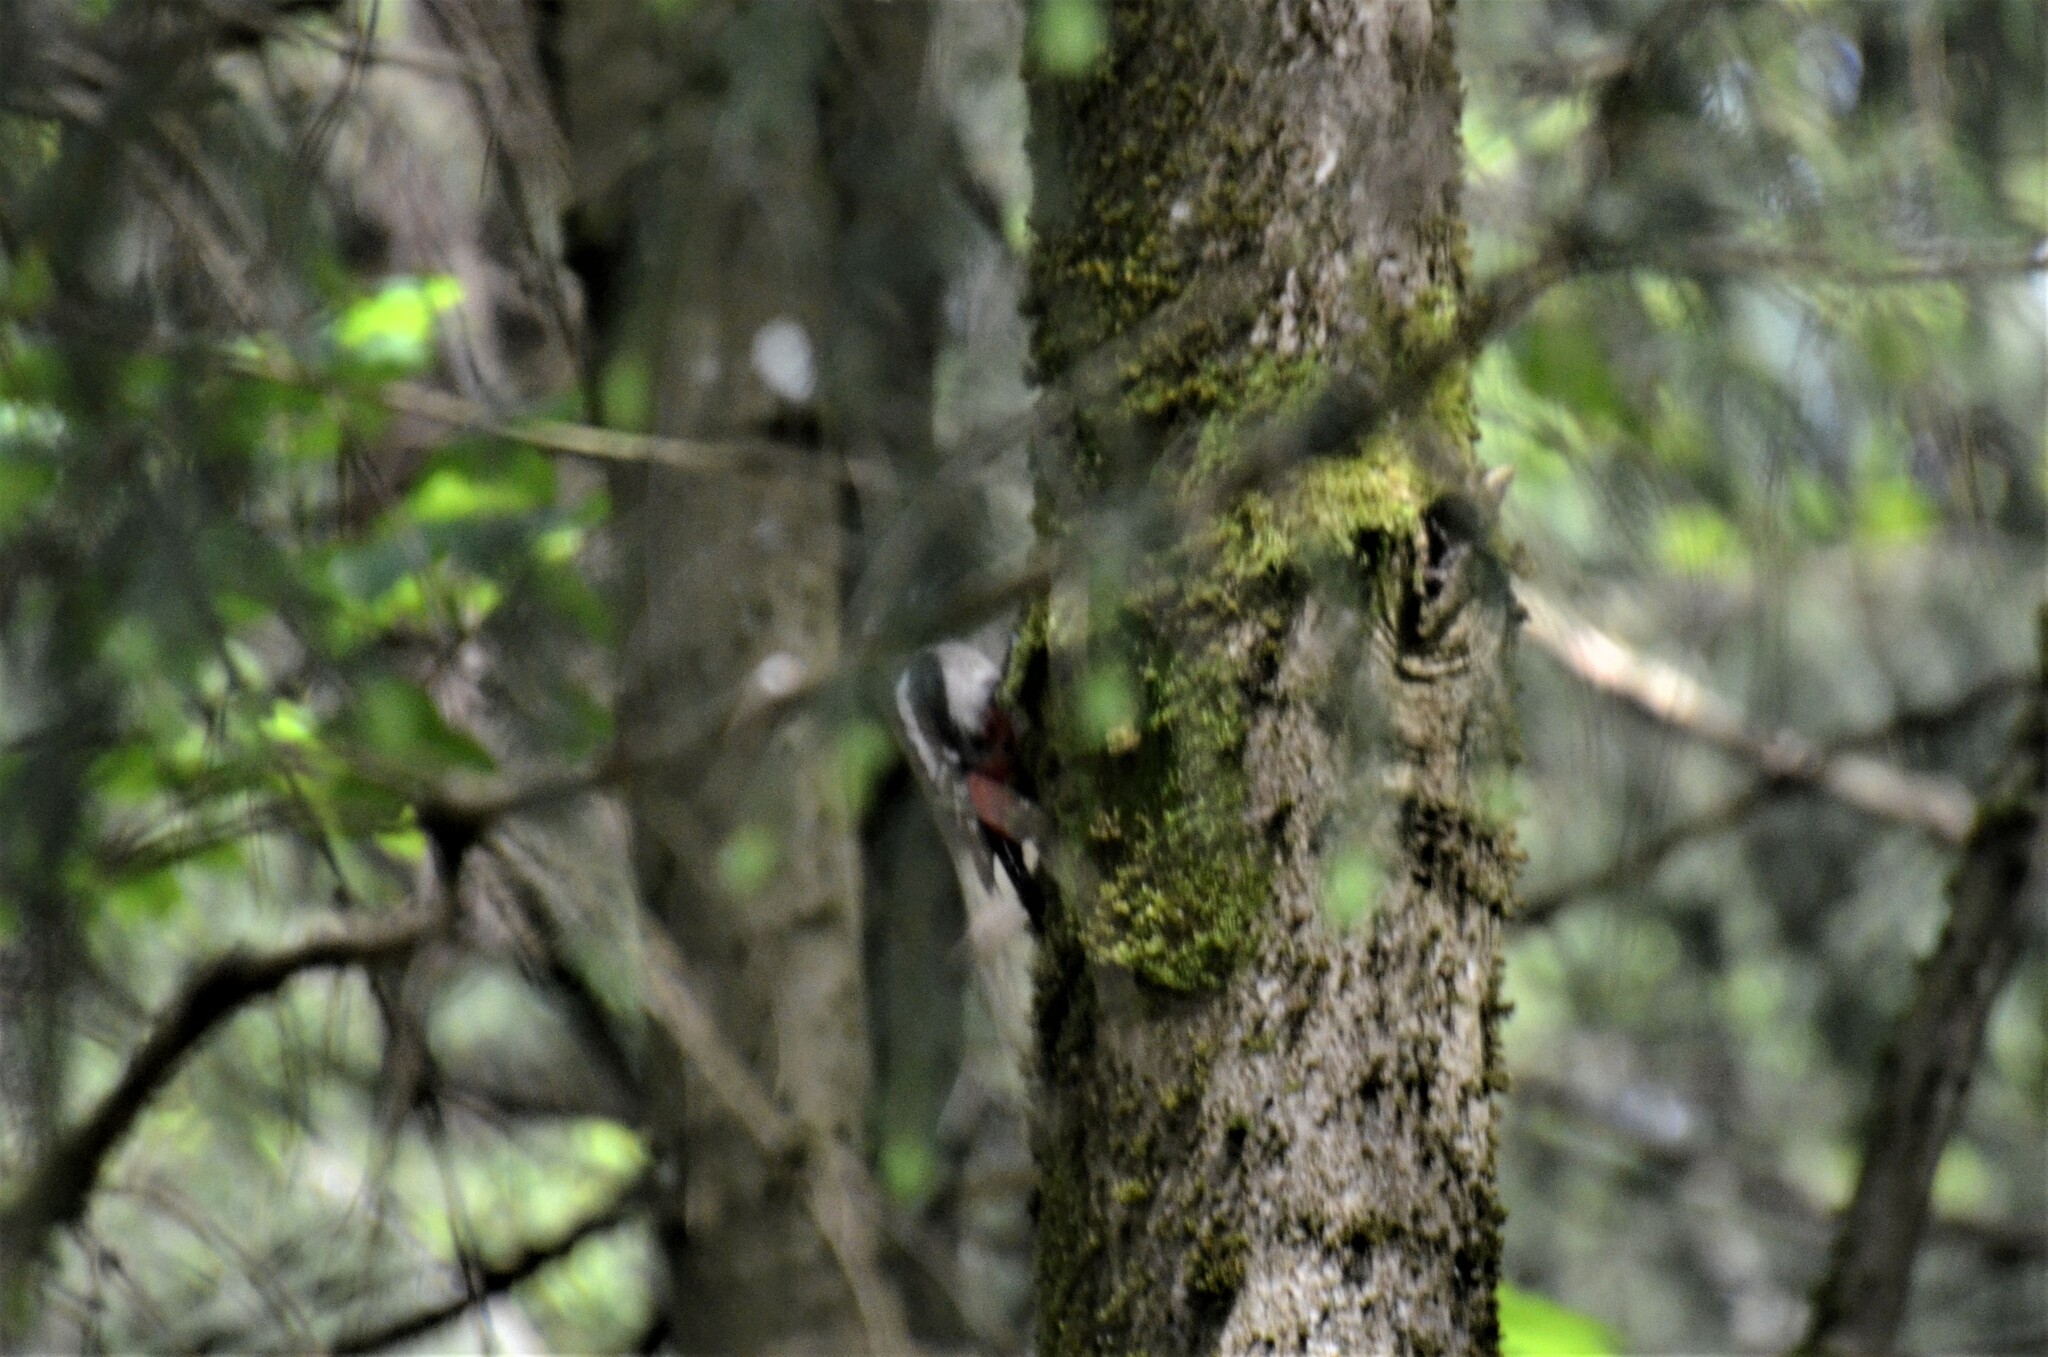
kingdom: Animalia
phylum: Chordata
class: Aves
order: Piciformes
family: Picidae
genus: Dendrocopos
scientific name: Dendrocopos major
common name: Great spotted woodpecker
